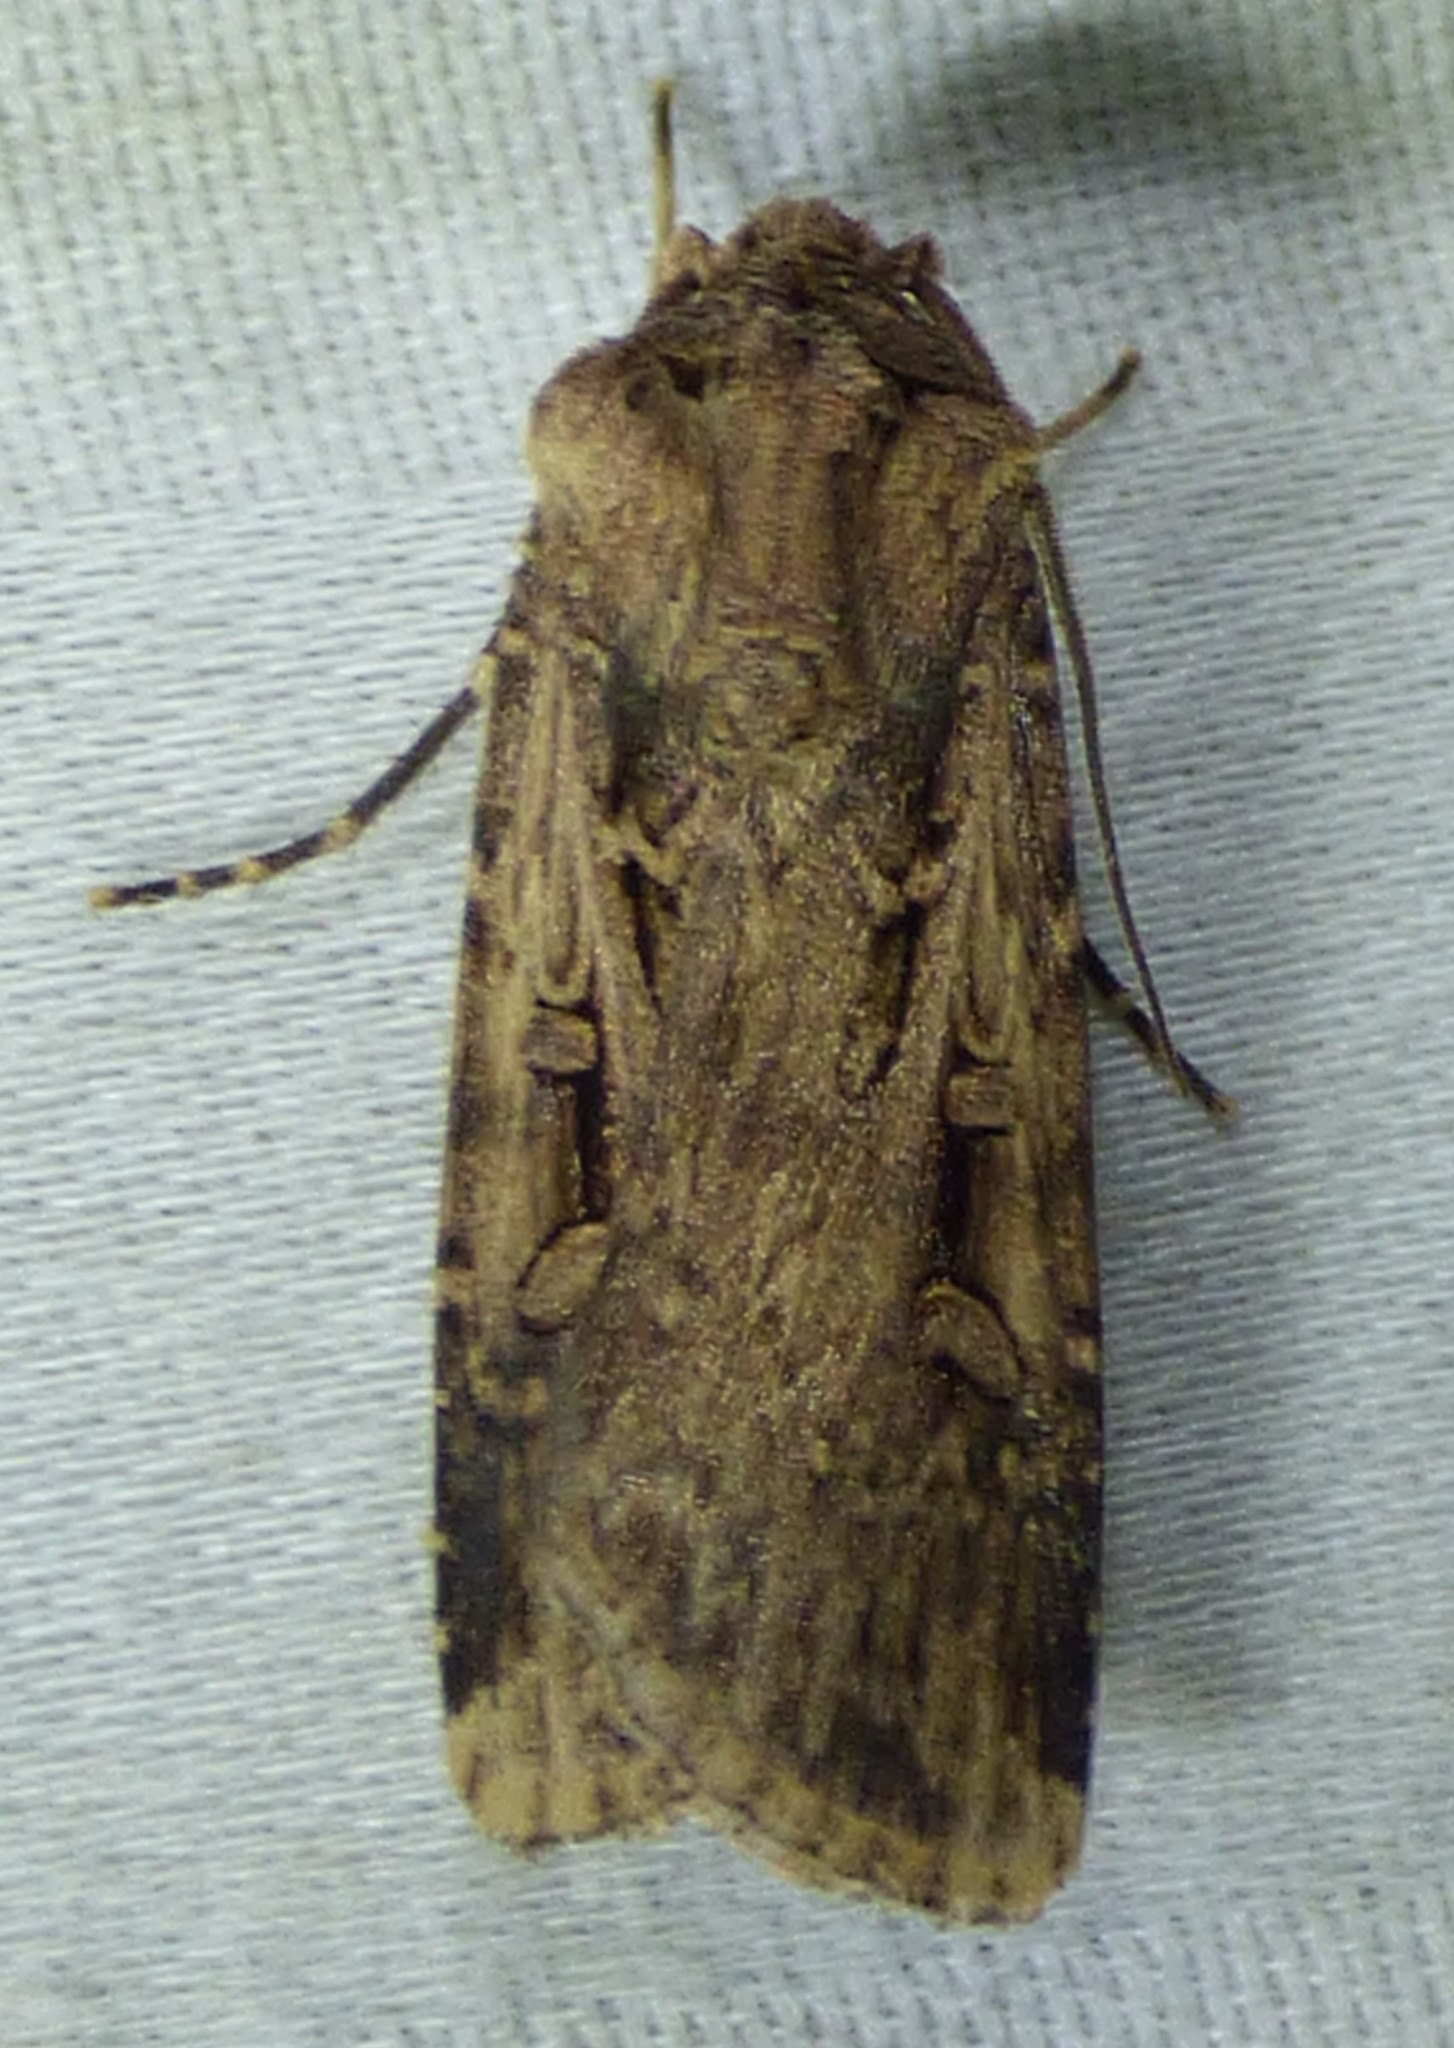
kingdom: Animalia
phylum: Arthropoda
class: Insecta
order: Lepidoptera
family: Noctuidae
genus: Feltia
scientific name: Feltia subterranea
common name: Granulate cutworm
